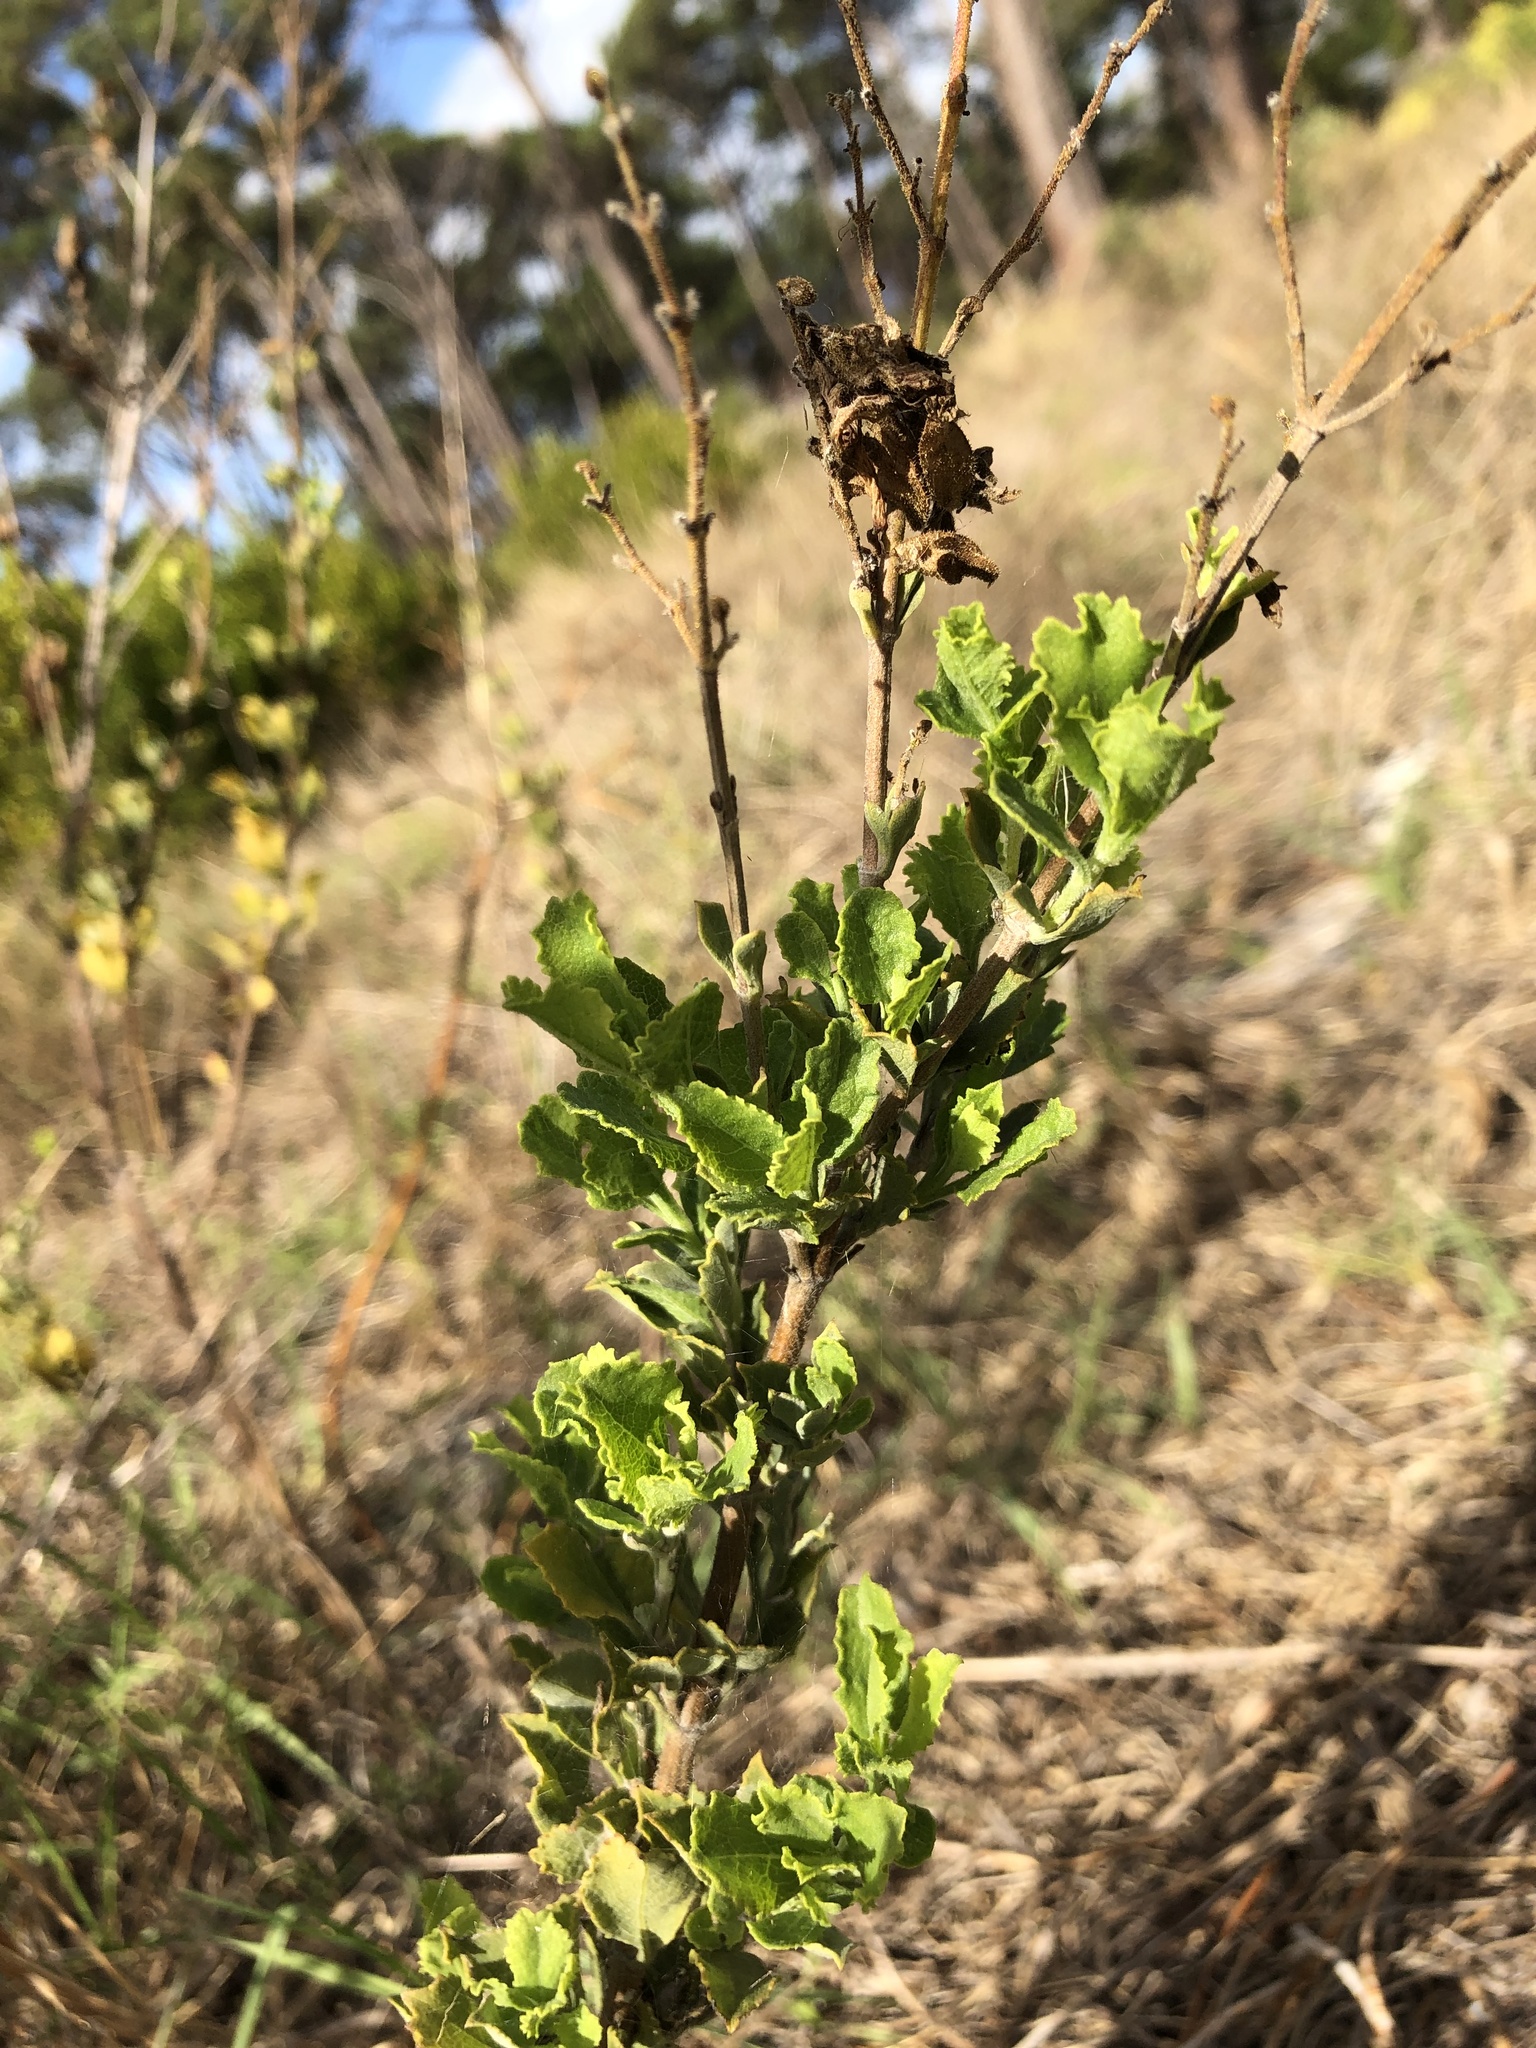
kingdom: Plantae
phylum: Tracheophyta
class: Magnoliopsida
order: Lamiales
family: Lamiaceae
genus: Salvia
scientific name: Salvia chamelaeagnea
